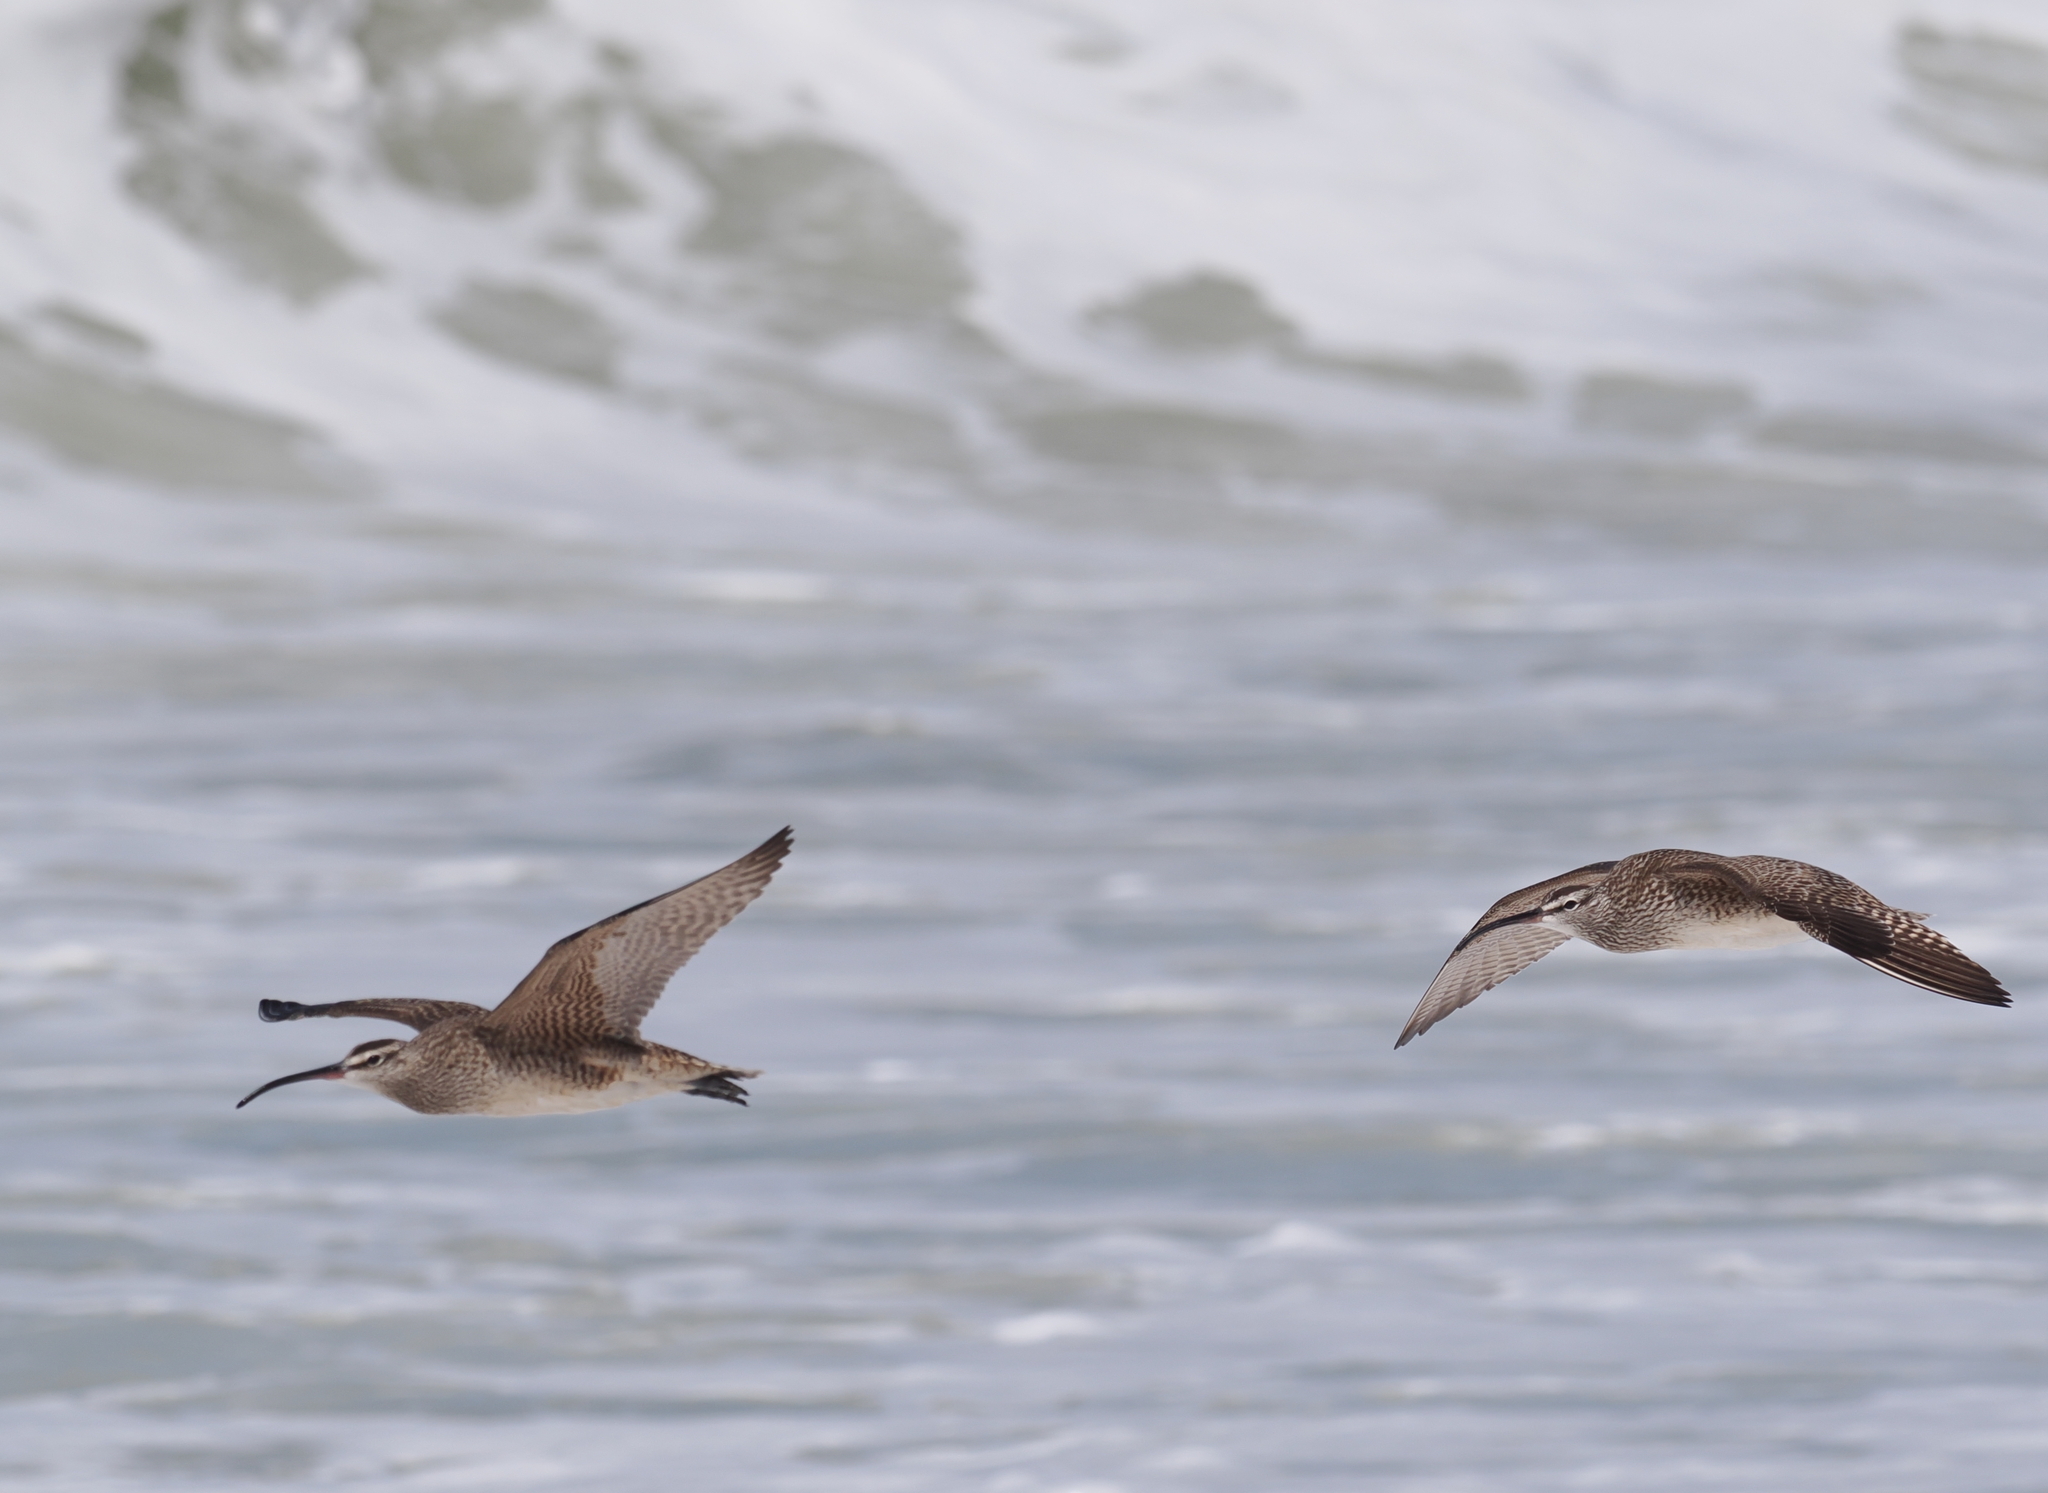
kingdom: Animalia
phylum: Chordata
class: Aves
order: Charadriiformes
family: Scolopacidae
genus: Numenius
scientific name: Numenius phaeopus
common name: Whimbrel
